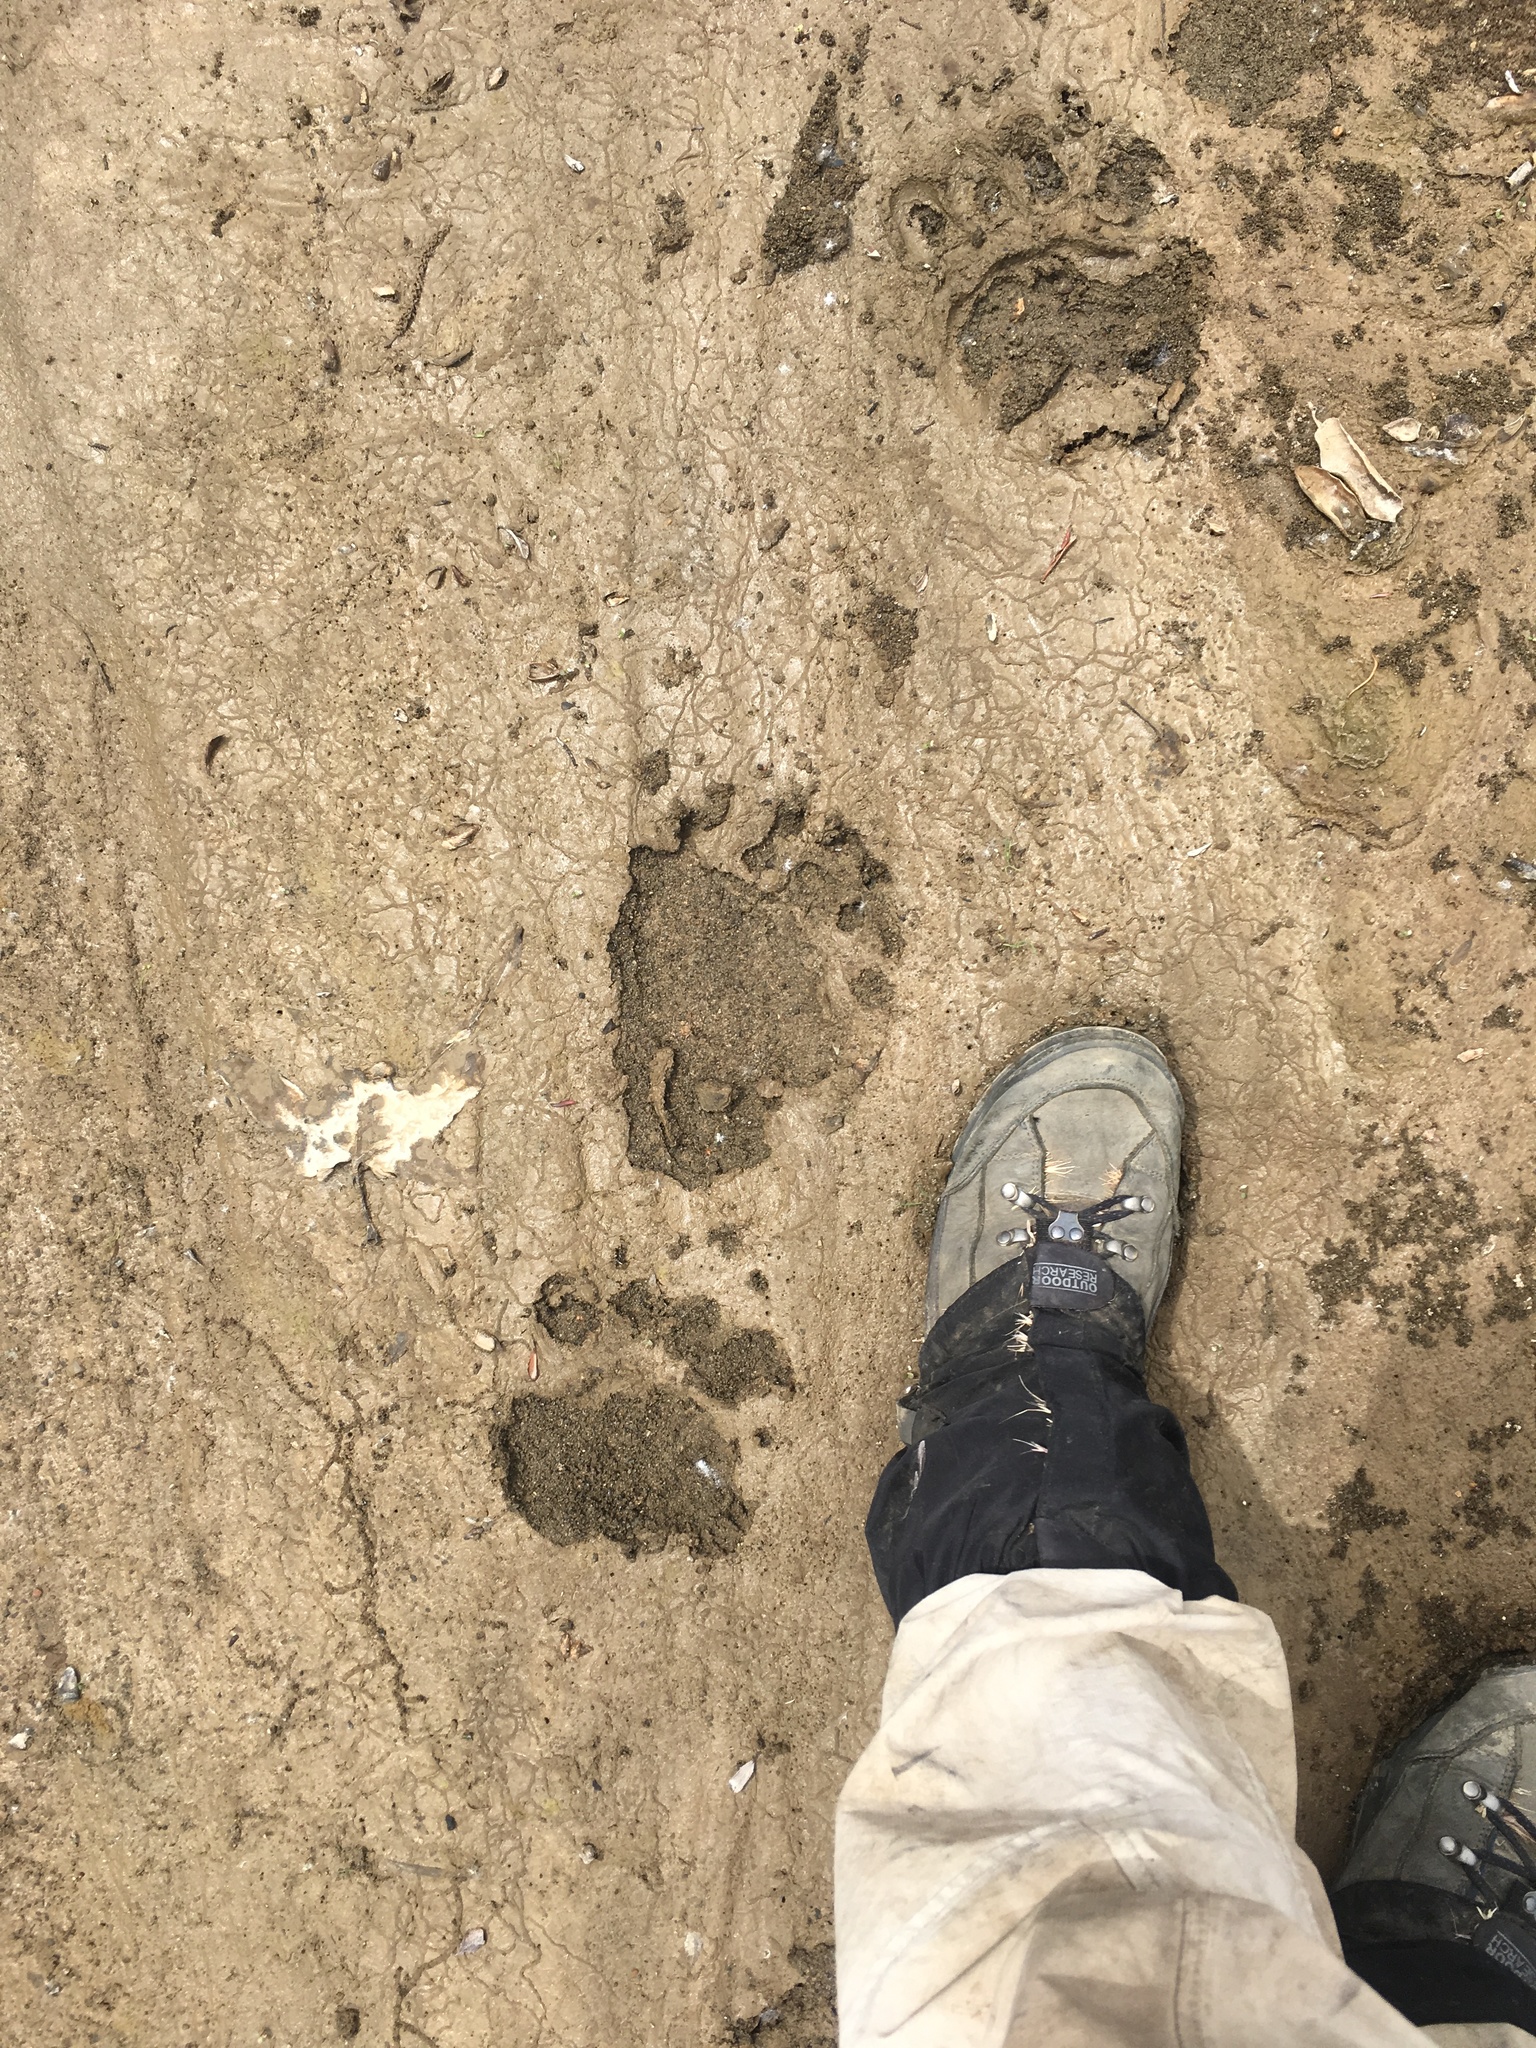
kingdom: Animalia
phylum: Chordata
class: Mammalia
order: Carnivora
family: Ursidae
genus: Ursus
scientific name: Ursus americanus
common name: American black bear
